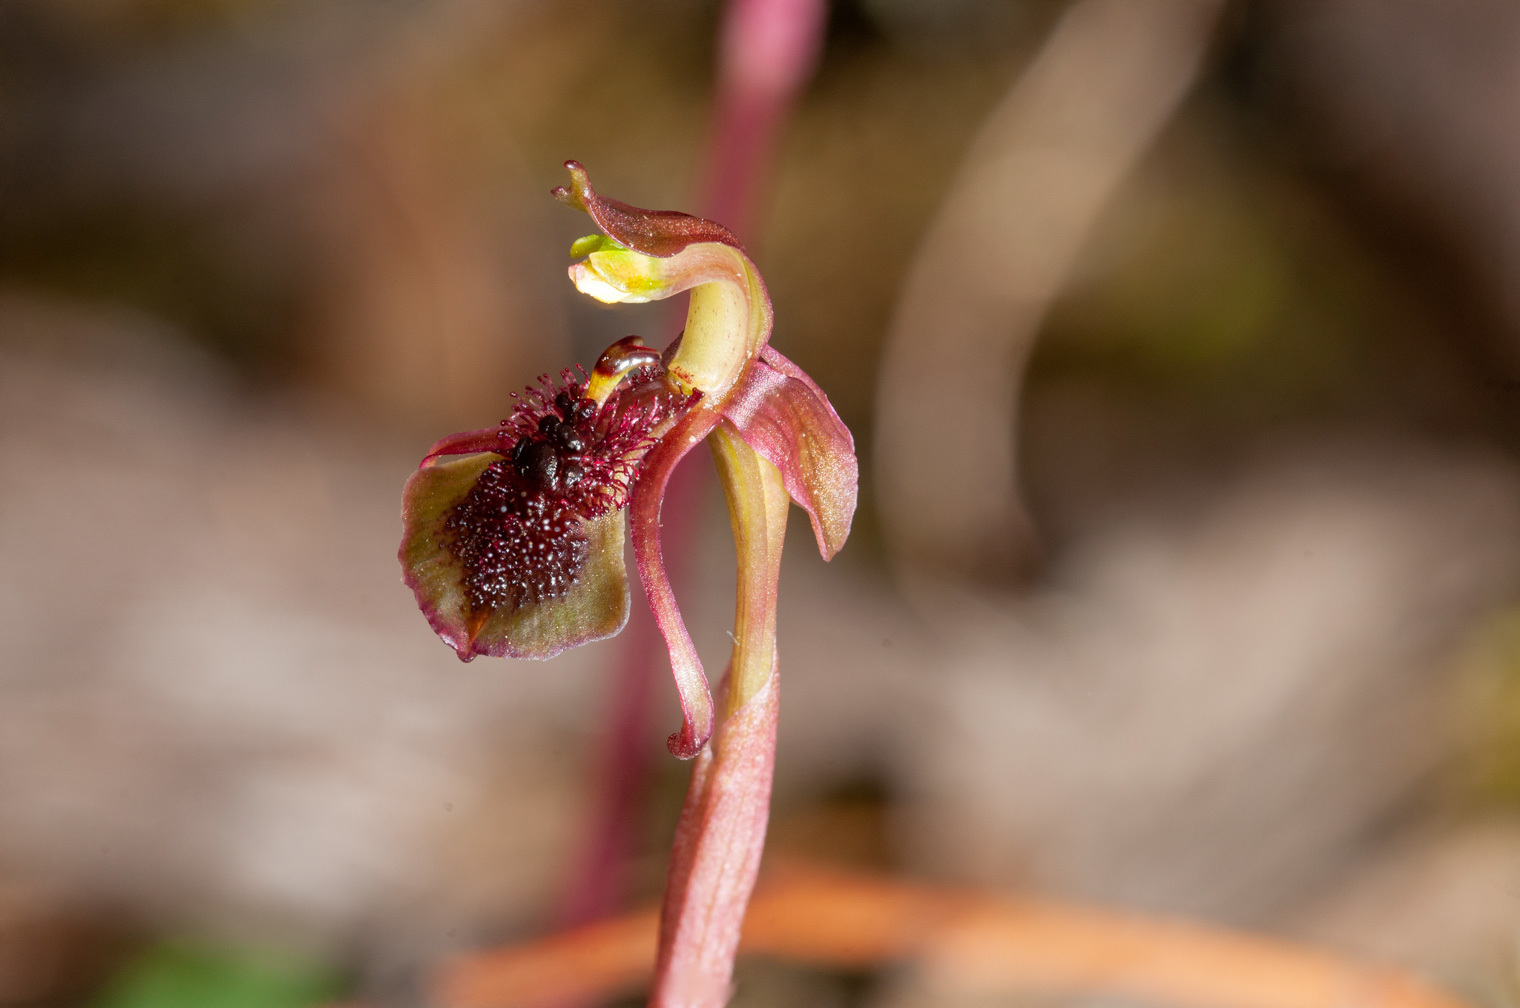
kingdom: Plantae
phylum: Tracheophyta
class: Liliopsida
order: Asparagales
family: Orchidaceae
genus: Chiloglottis
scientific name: Chiloglottis curviclavia
